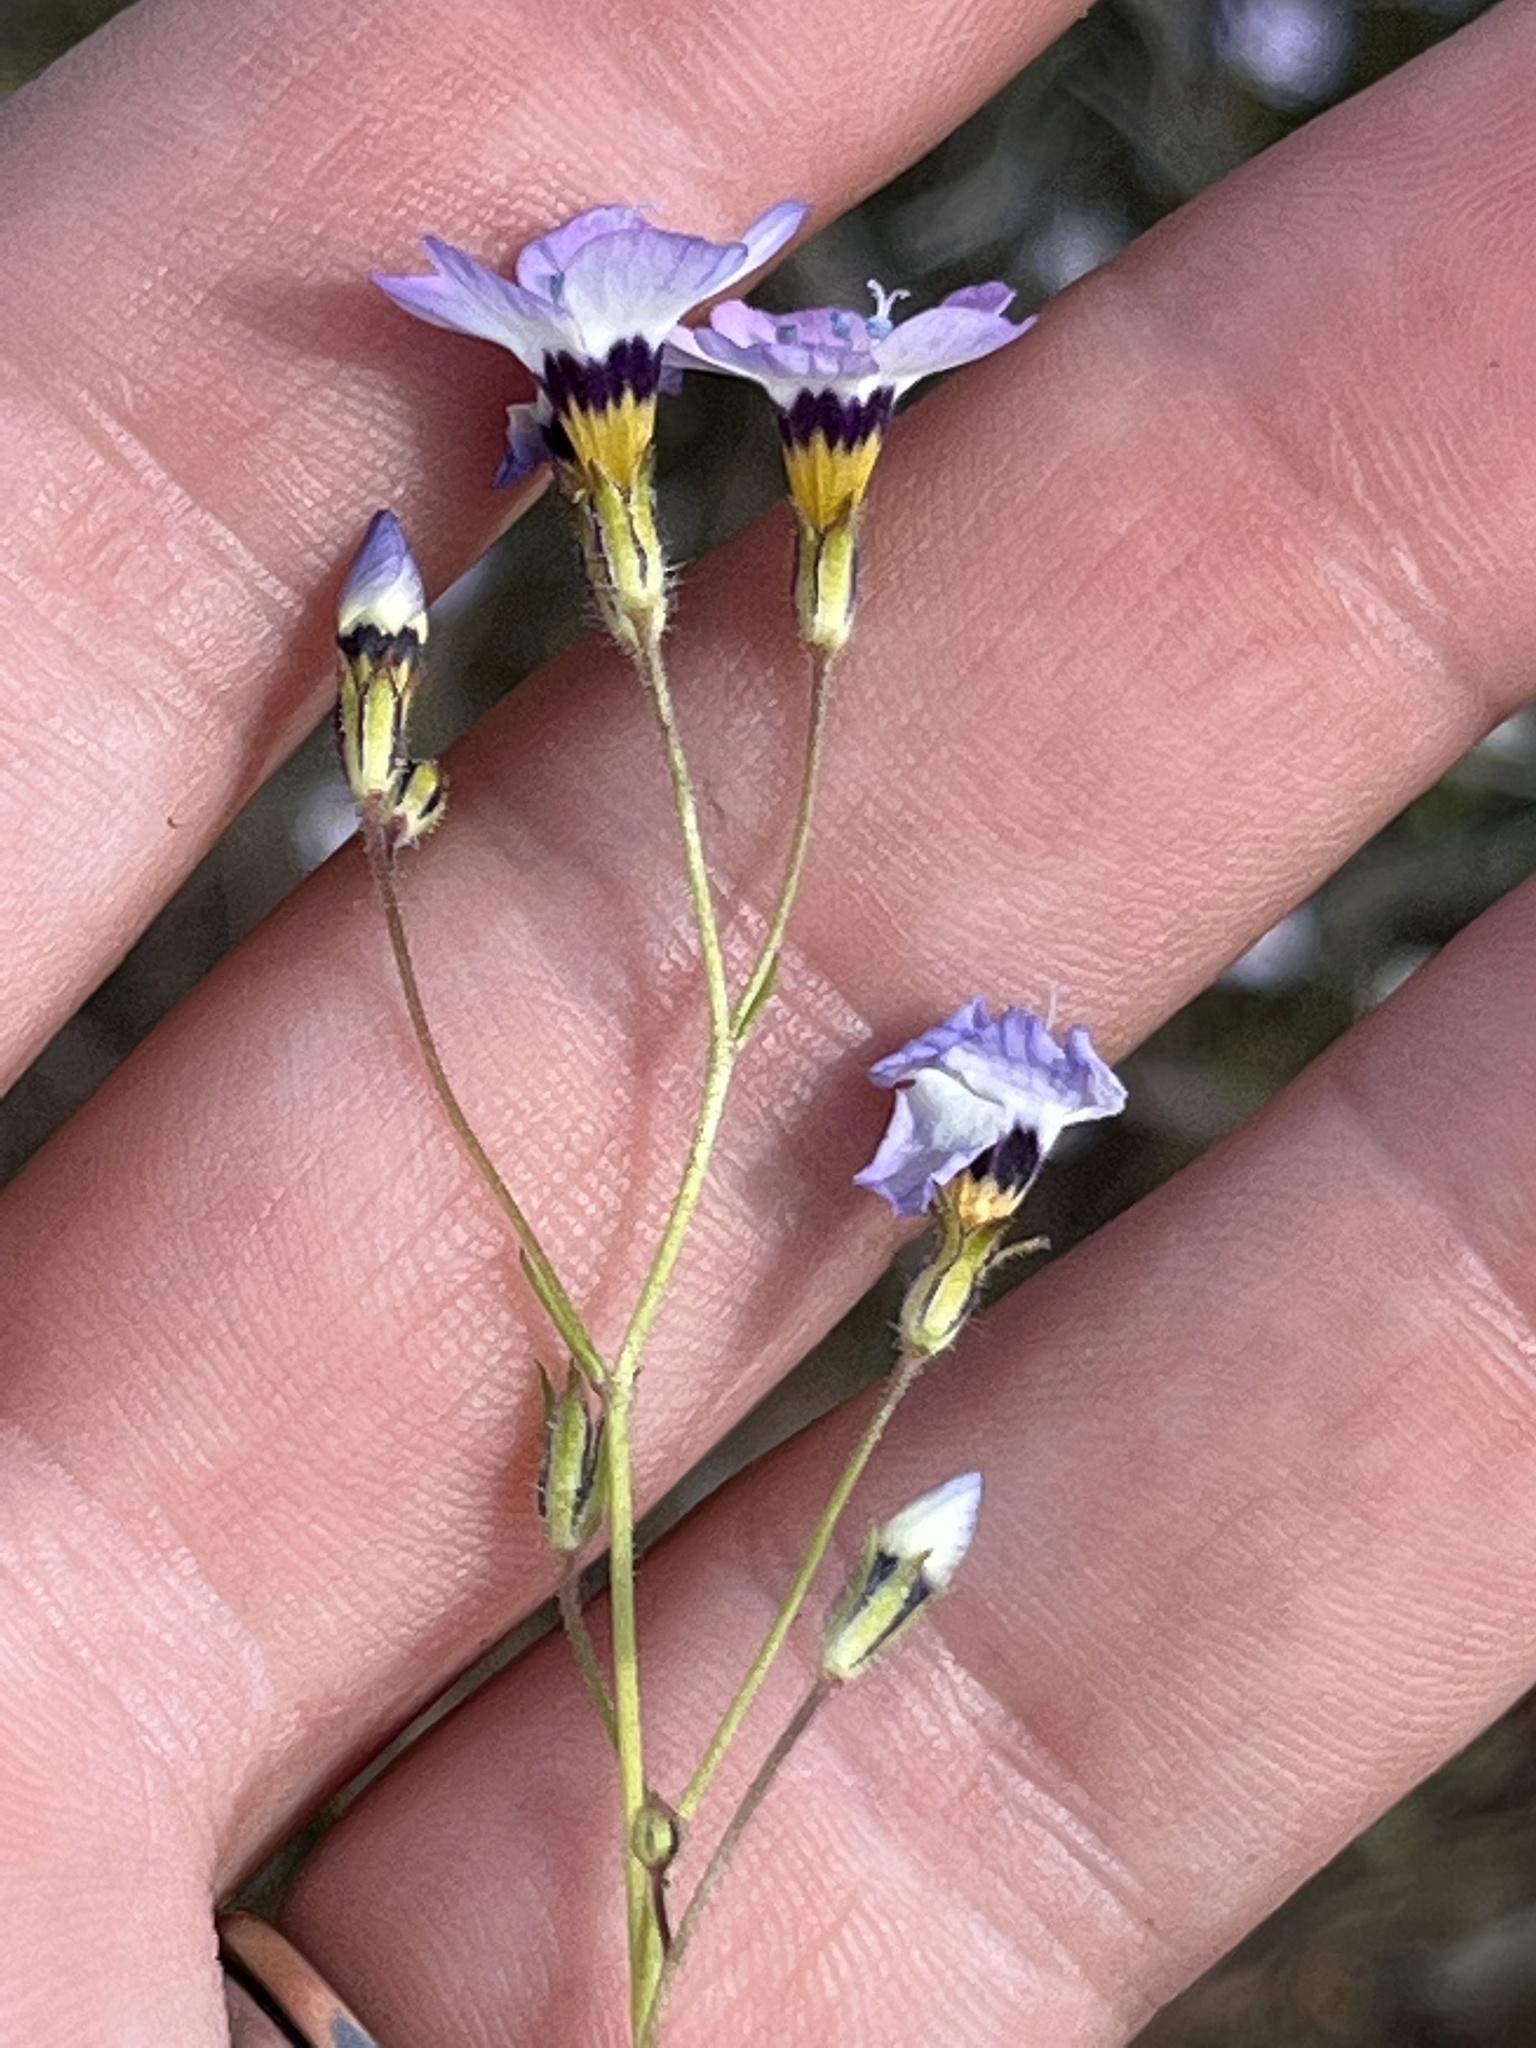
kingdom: Plantae
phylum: Tracheophyta
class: Magnoliopsida
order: Ericales
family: Polemoniaceae
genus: Gilia
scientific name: Gilia tricolor
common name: Bird's-eyes
